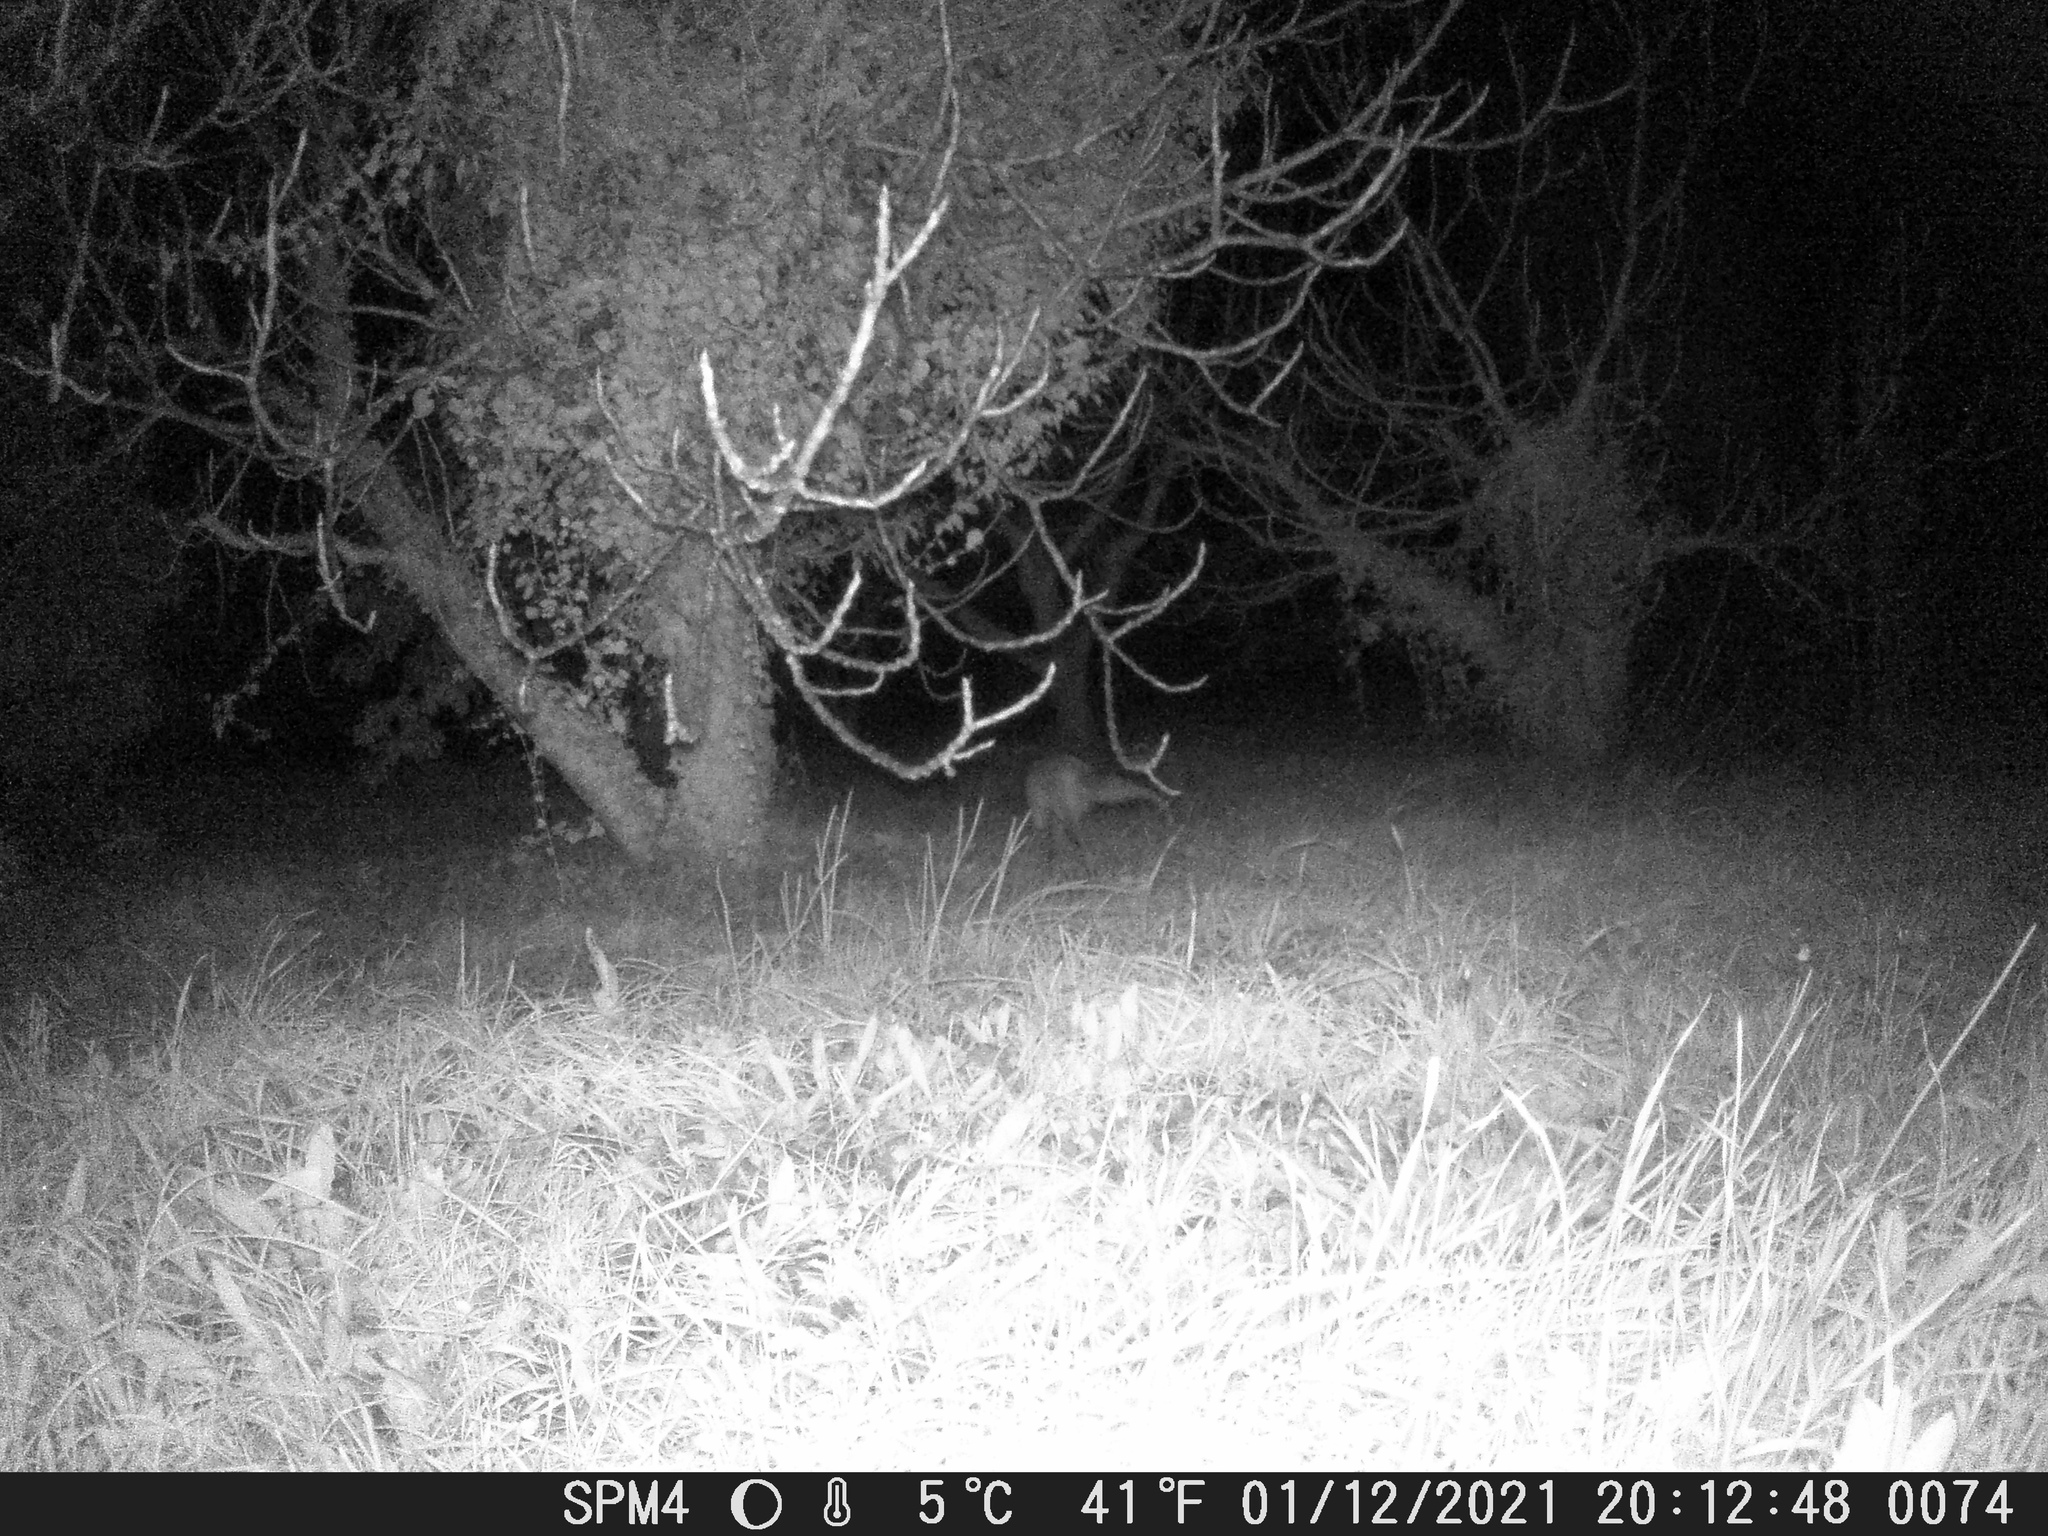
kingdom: Animalia
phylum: Chordata
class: Mammalia
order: Carnivora
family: Canidae
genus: Vulpes
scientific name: Vulpes vulpes
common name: Red fox
